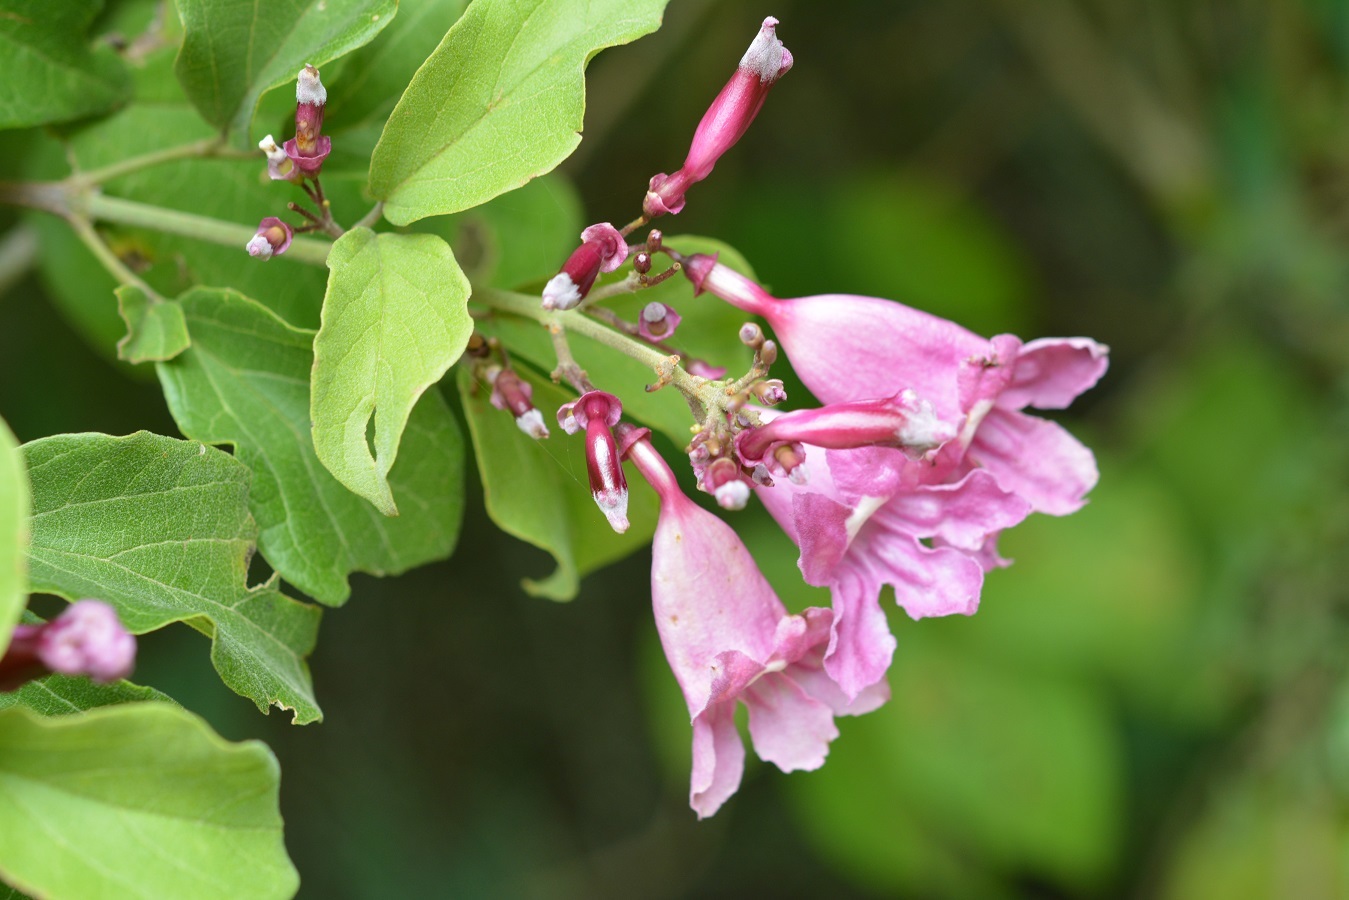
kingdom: Plantae
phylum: Tracheophyta
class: Magnoliopsida
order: Lamiales
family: Bignoniaceae
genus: Fridericia
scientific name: Fridericia chica
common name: Cricketvine
